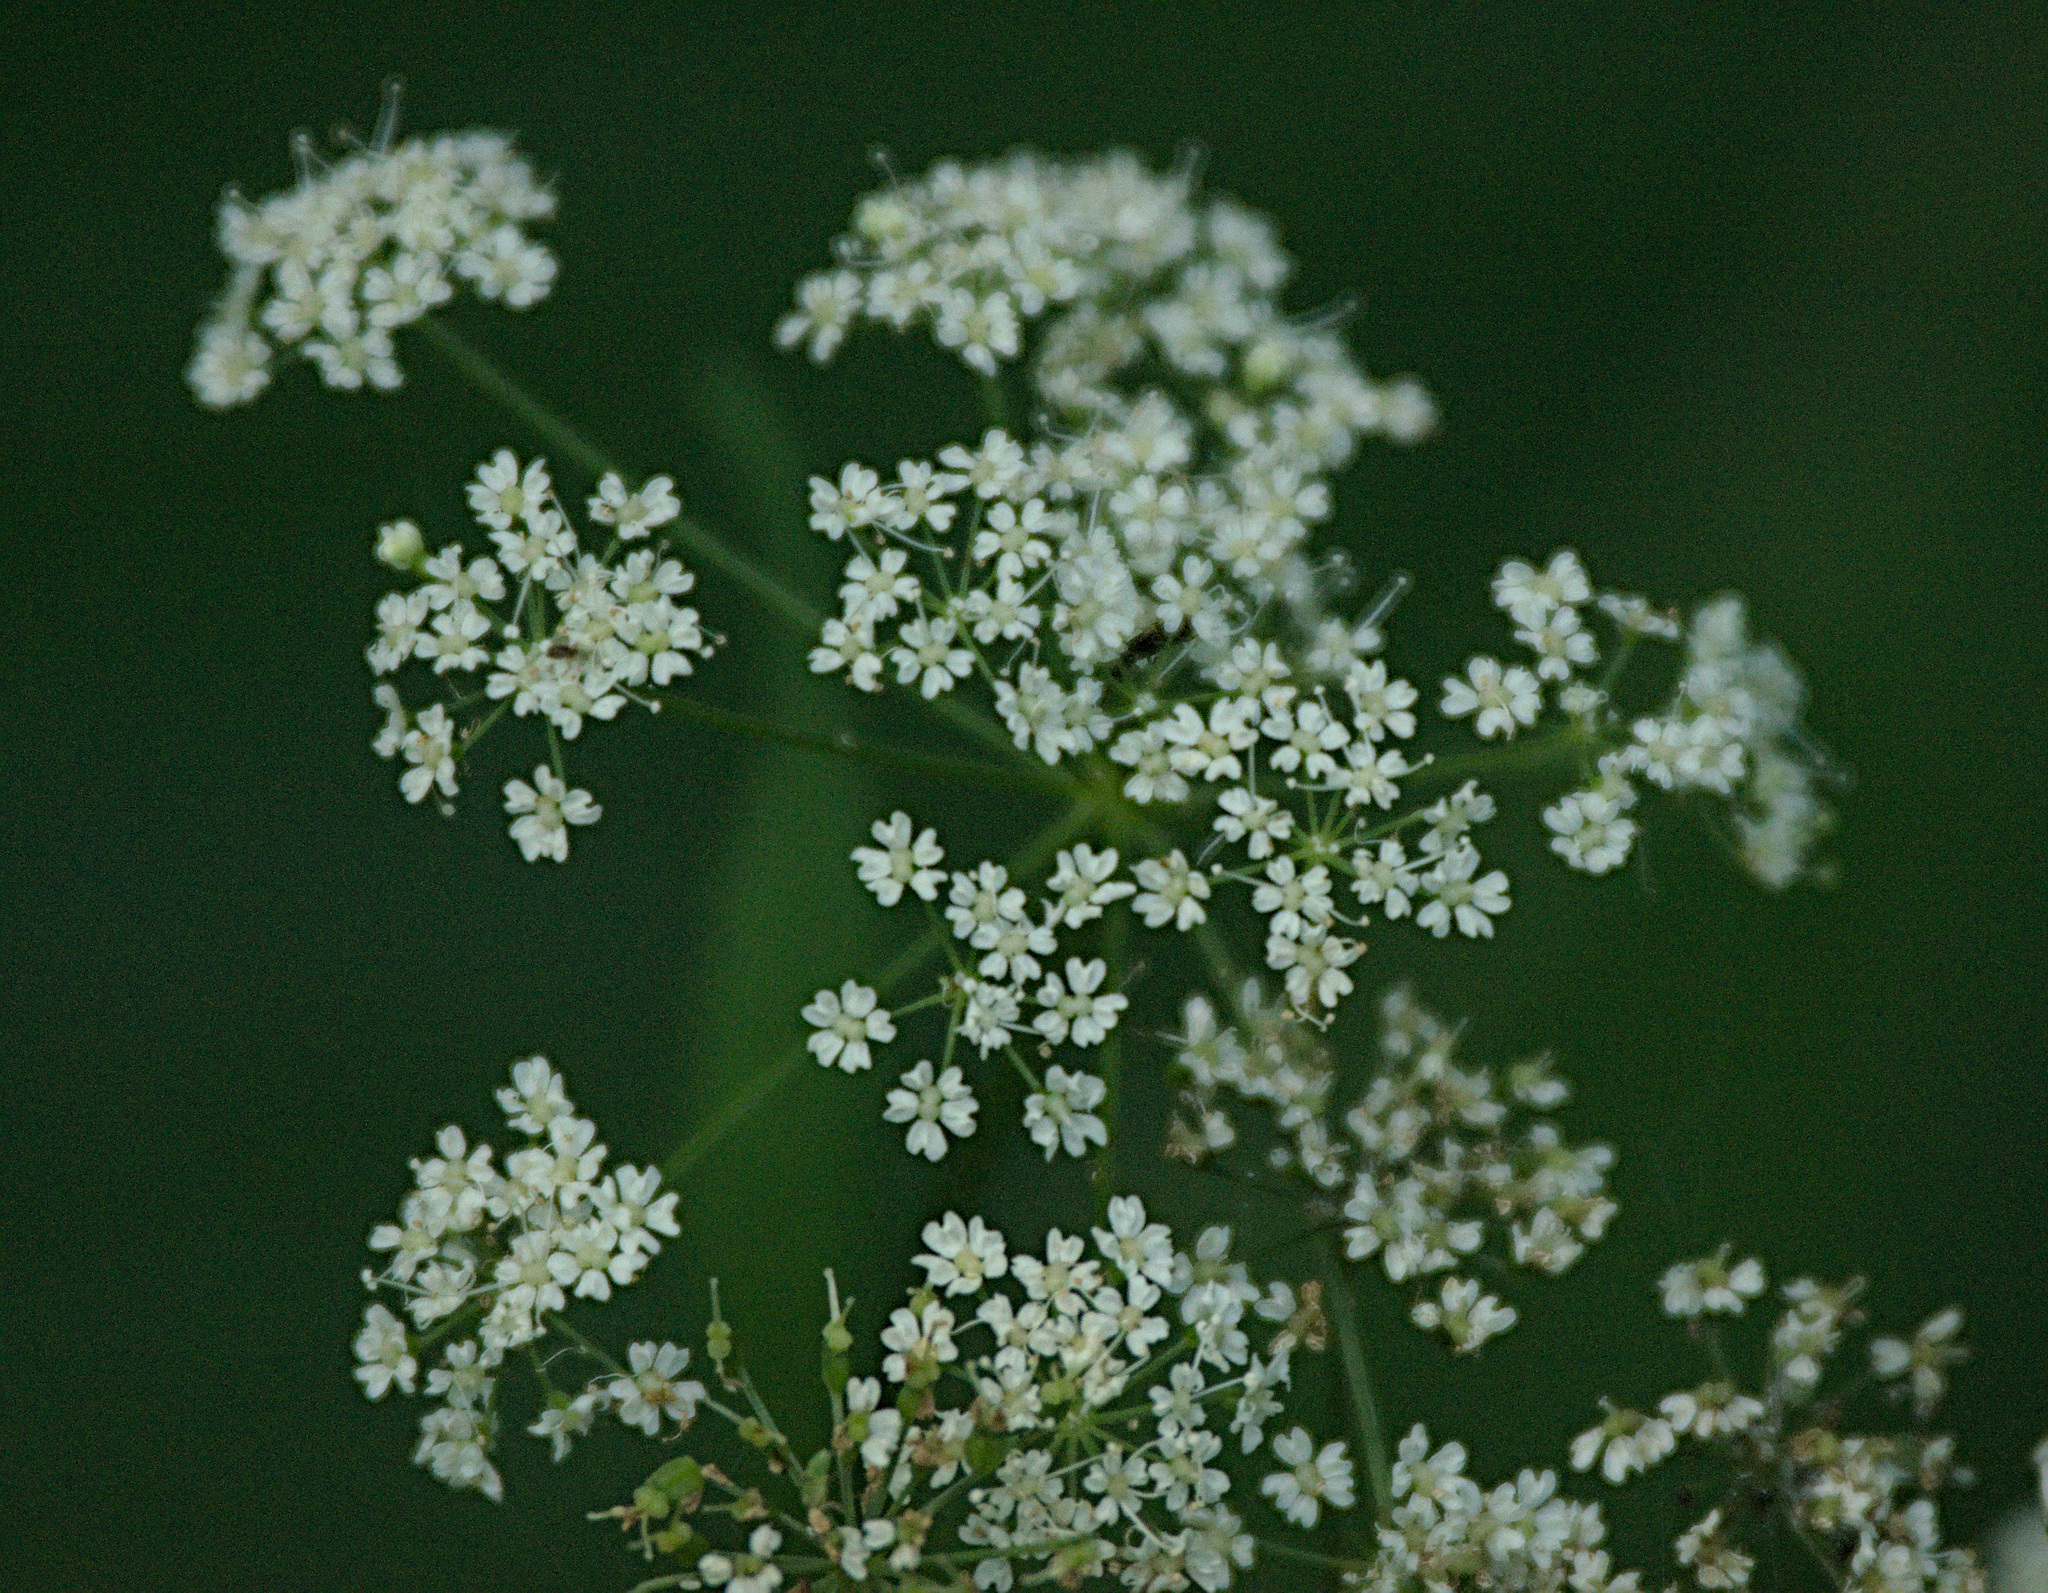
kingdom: Plantae
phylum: Tracheophyta
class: Magnoliopsida
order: Apiales
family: Apiaceae
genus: Heracleum
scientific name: Heracleum dissectum
